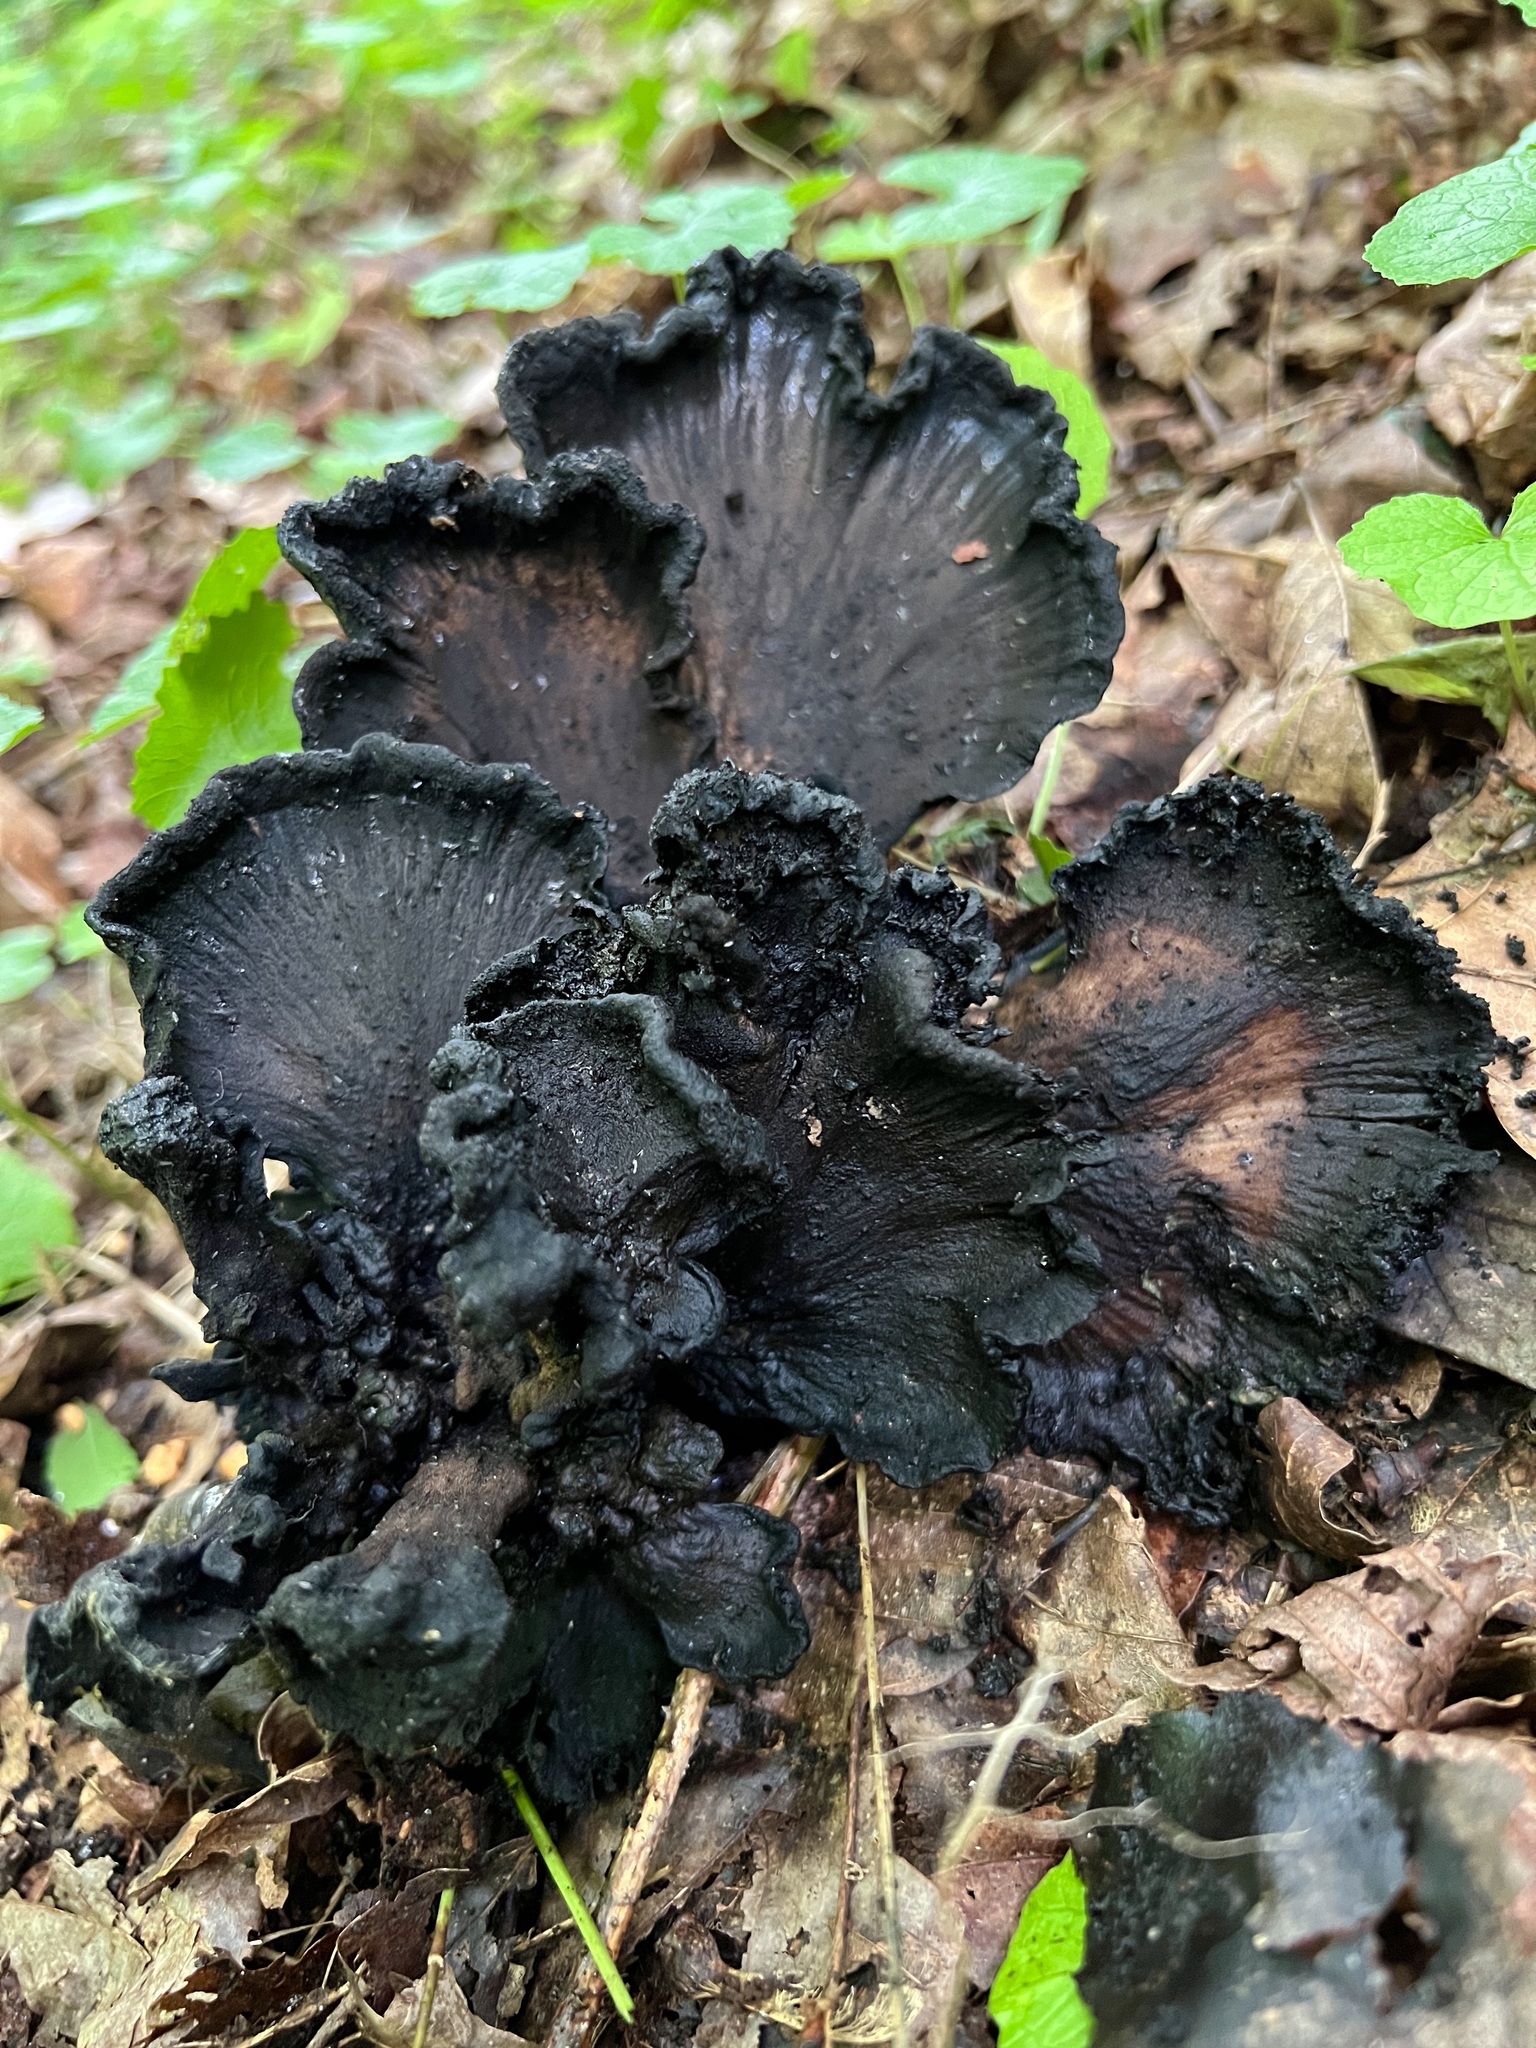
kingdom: Fungi
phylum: Basidiomycota
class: Agaricomycetes
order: Polyporales
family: Meripilaceae
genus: Meripilus
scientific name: Meripilus sumstinei
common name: Black-staining polypore
